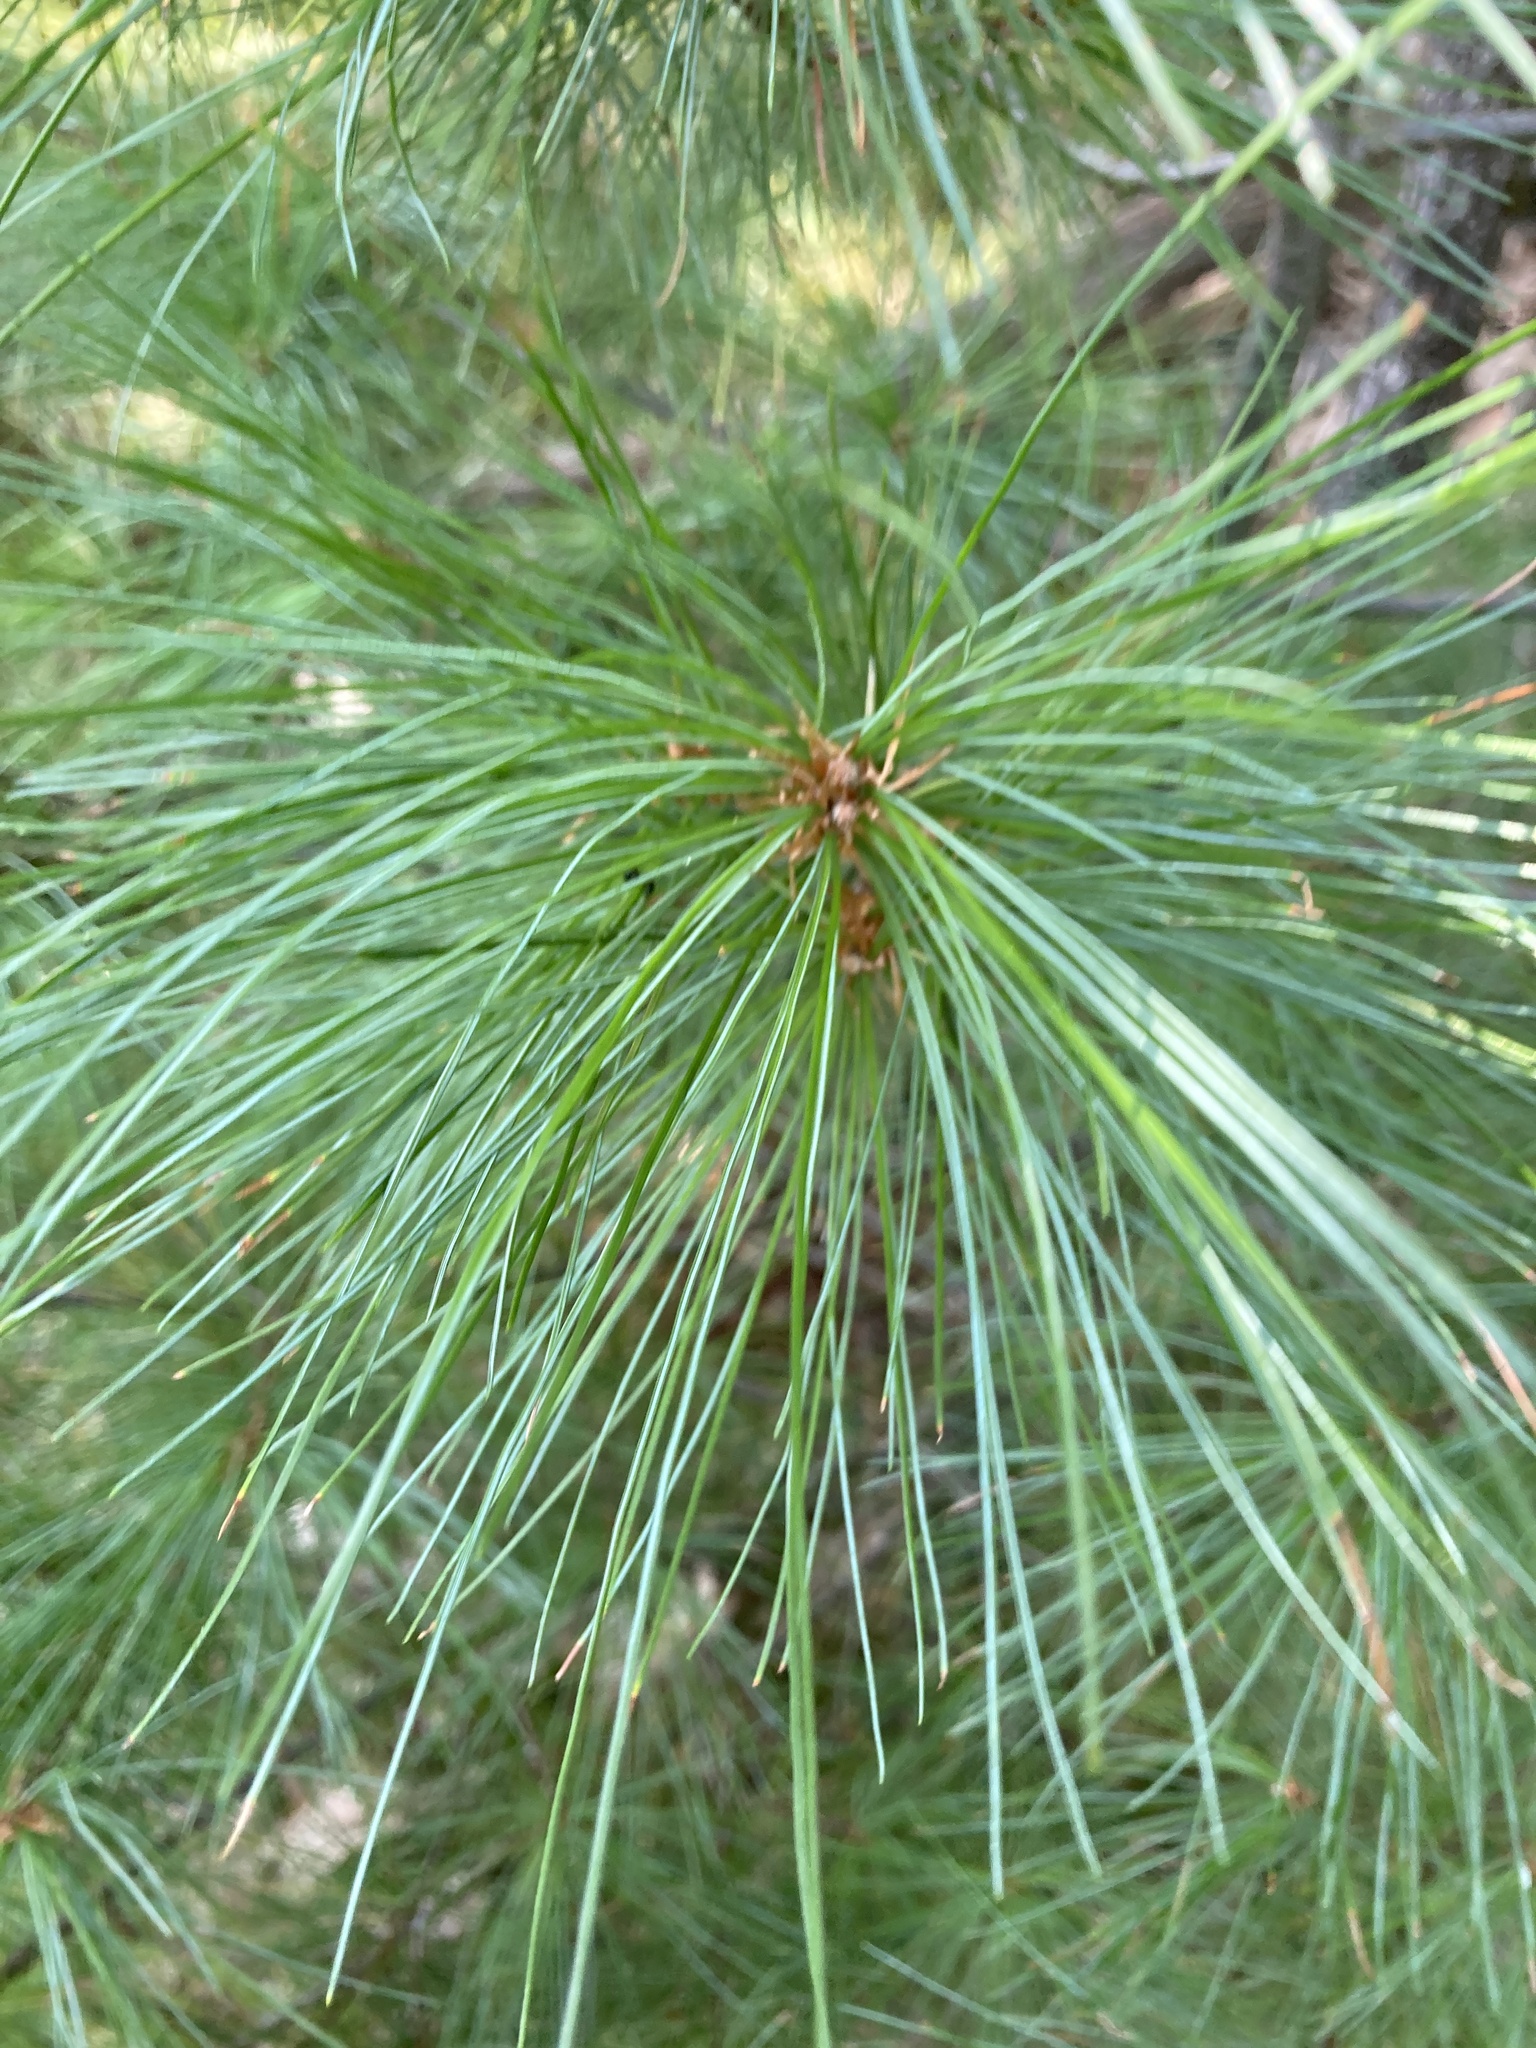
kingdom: Plantae
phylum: Tracheophyta
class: Pinopsida
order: Pinales
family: Pinaceae
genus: Pinus
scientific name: Pinus strobus
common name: Weymouth pine
